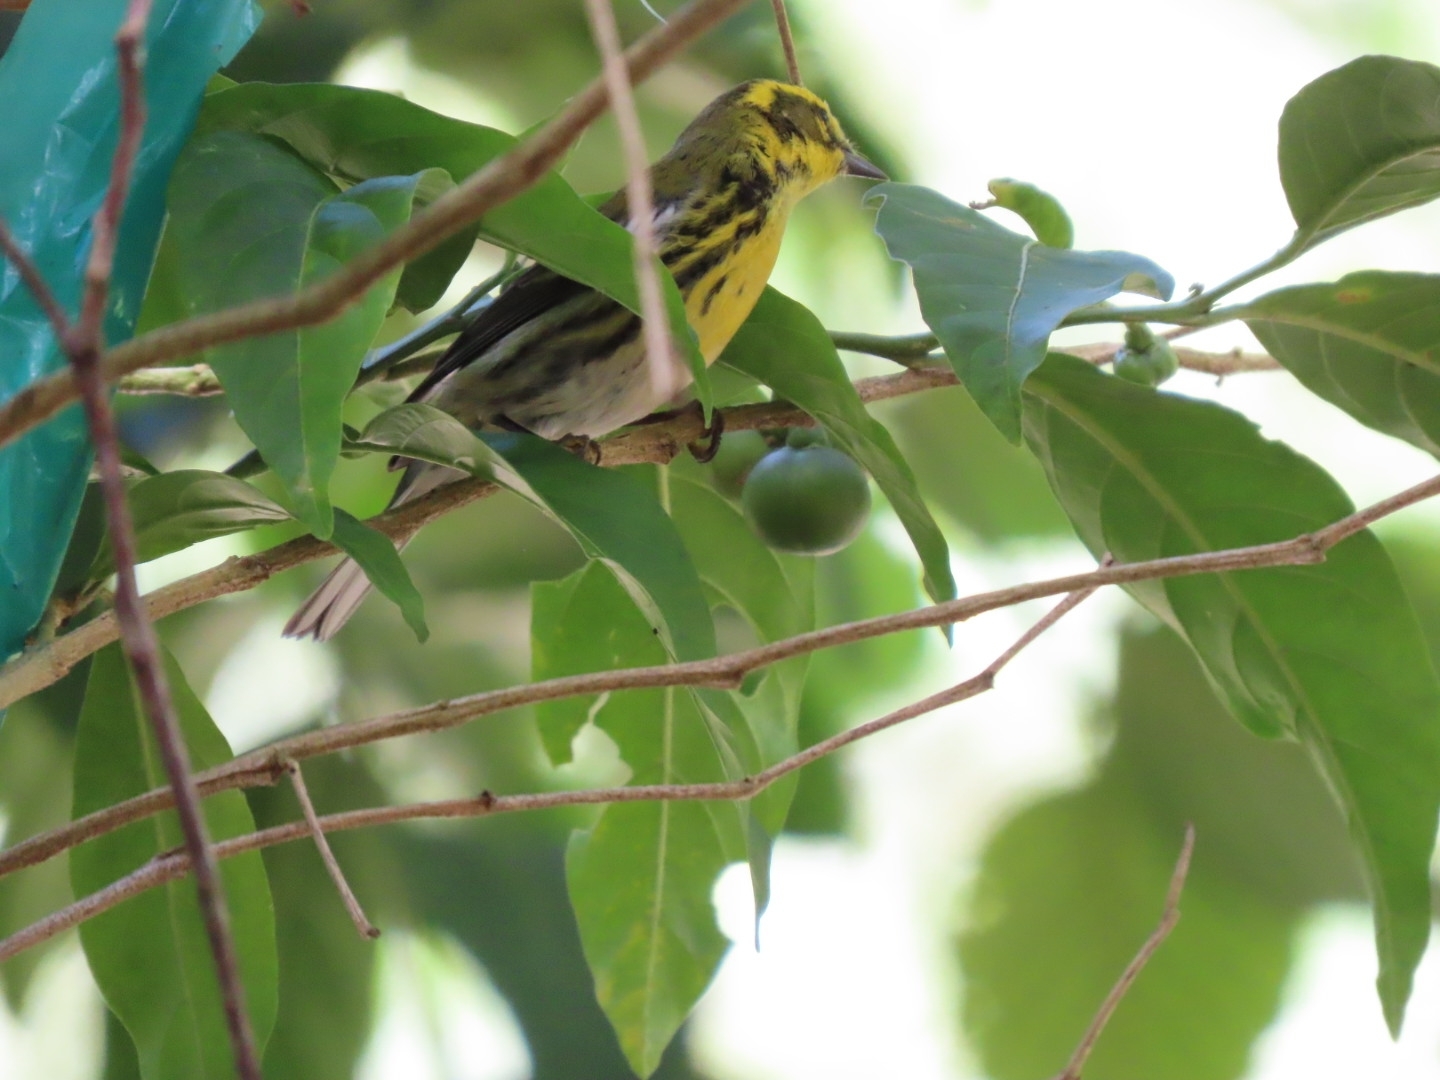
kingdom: Animalia
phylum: Chordata
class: Aves
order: Passeriformes
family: Parulidae
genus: Setophaga
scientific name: Setophaga townsendi
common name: Townsend's warbler
